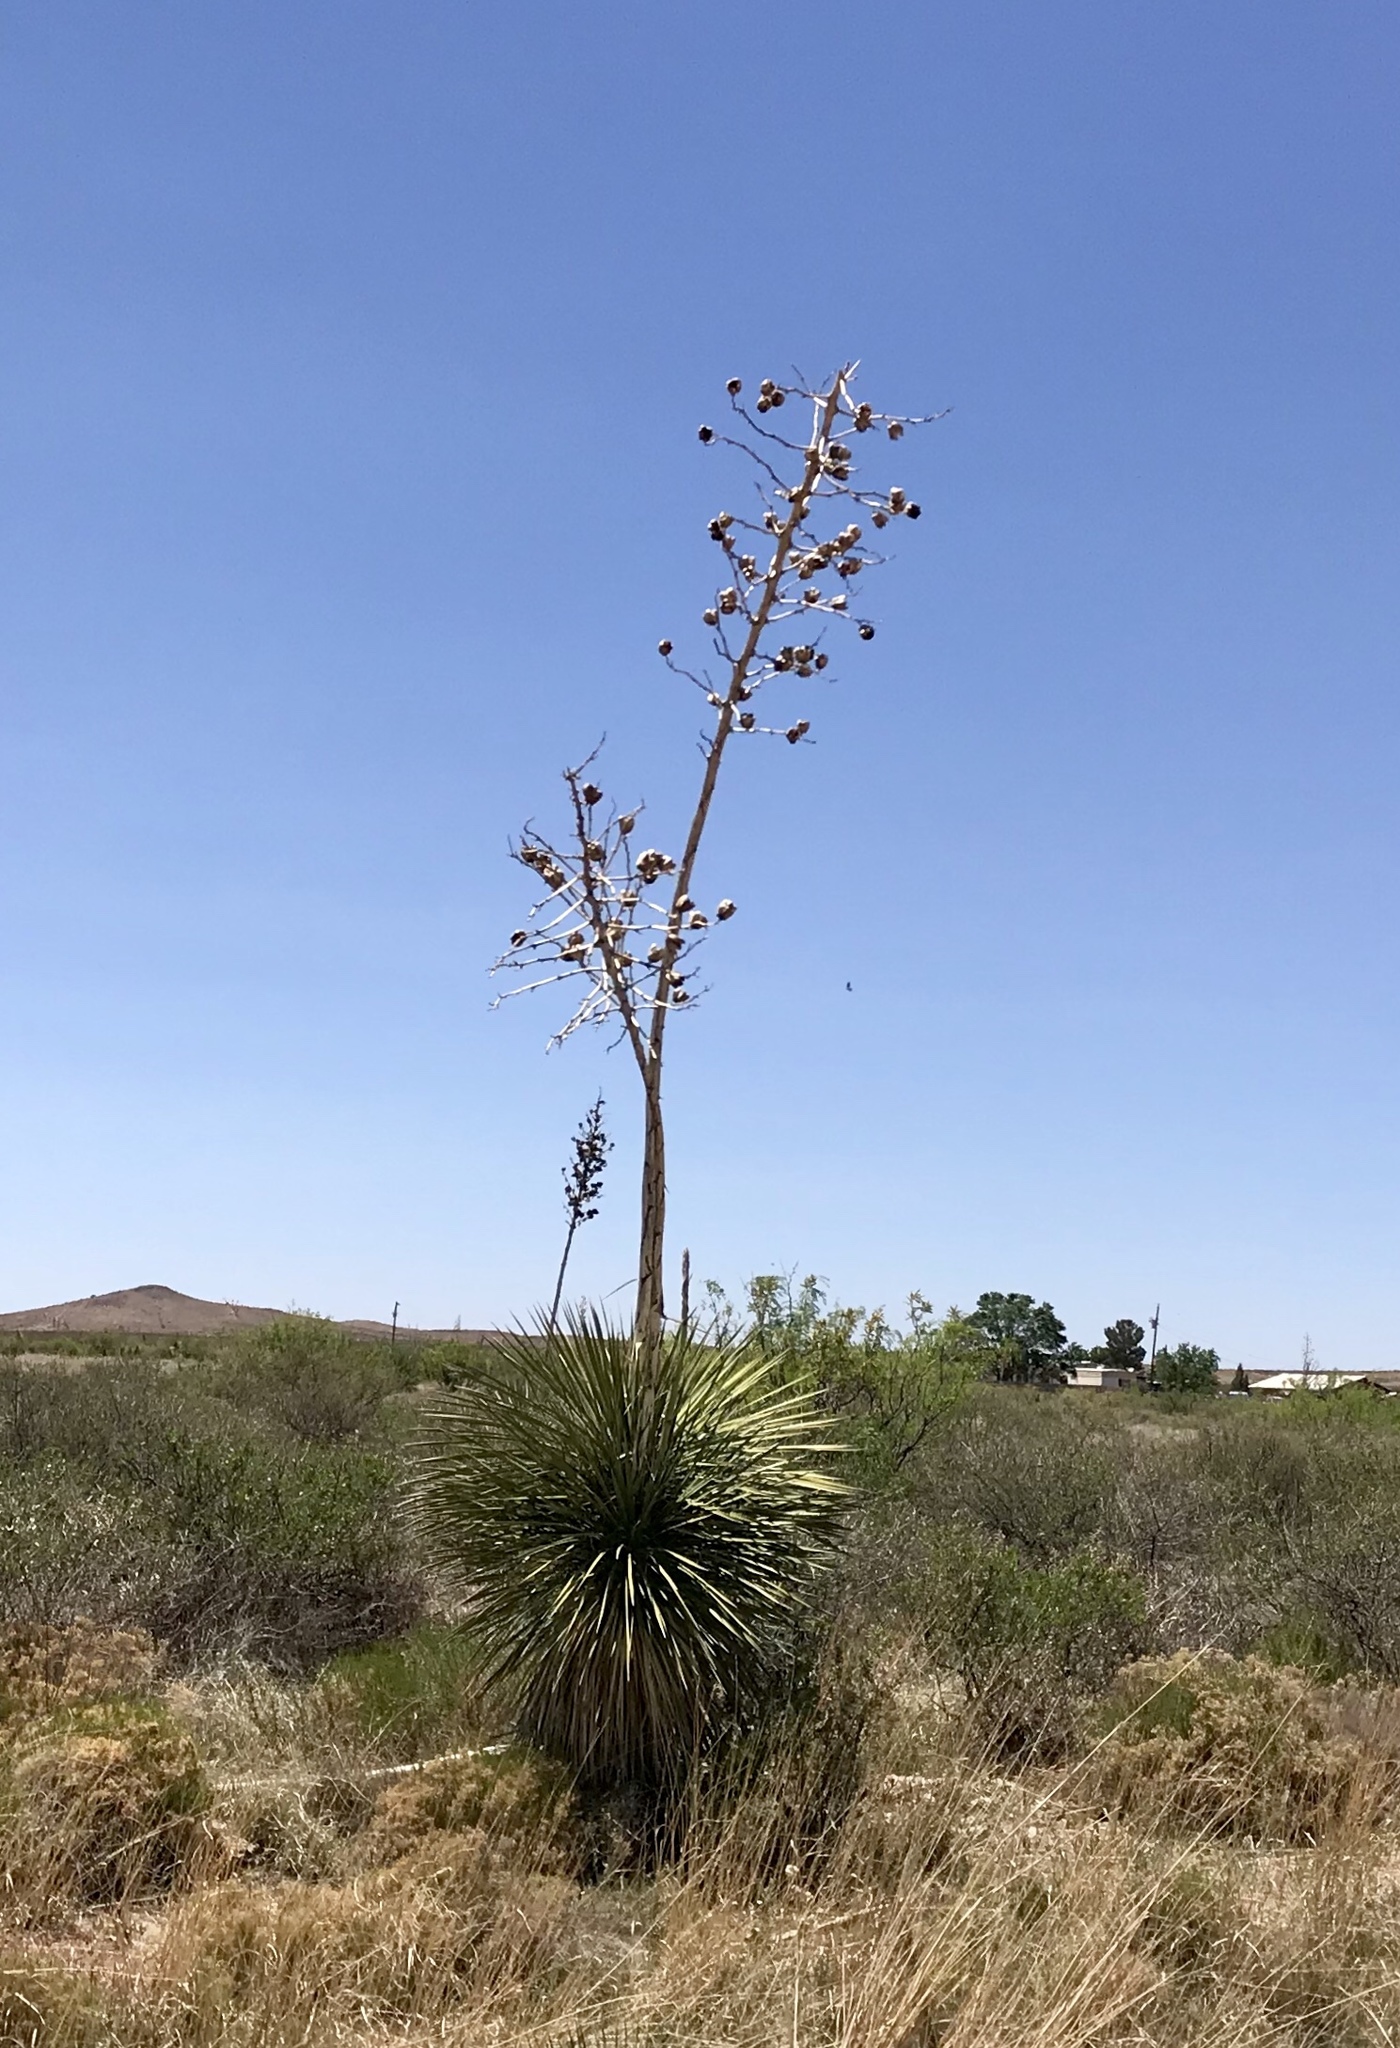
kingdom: Plantae
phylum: Tracheophyta
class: Liliopsida
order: Asparagales
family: Asparagaceae
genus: Yucca
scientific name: Yucca elata
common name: Palmella
